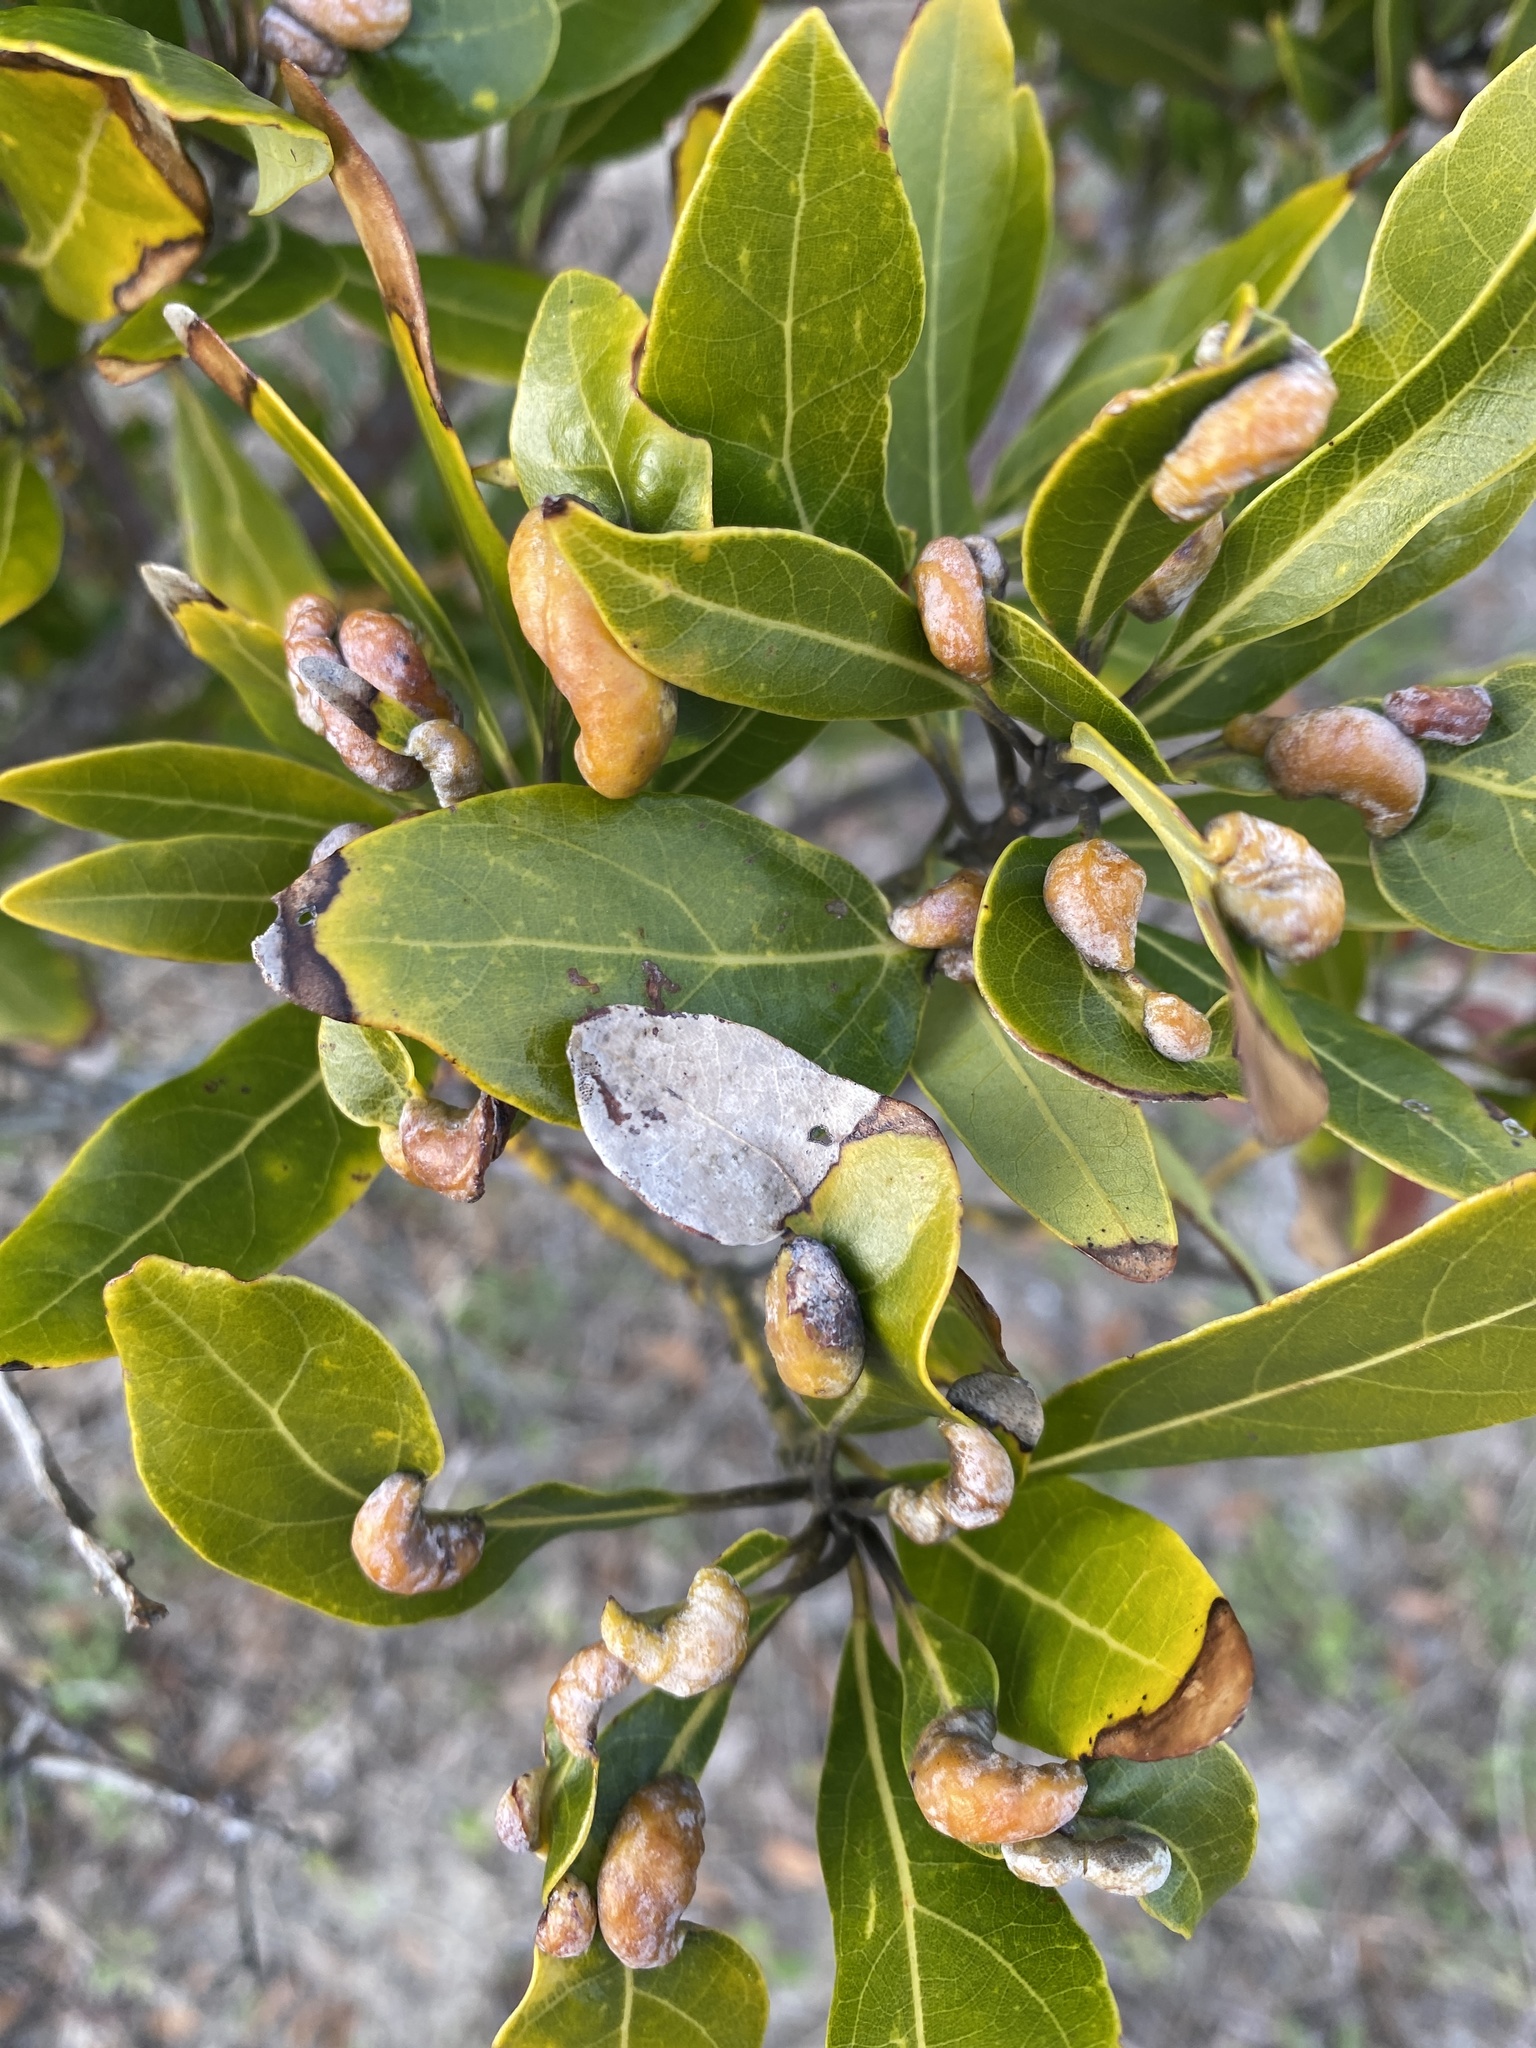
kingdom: Plantae
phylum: Tracheophyta
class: Magnoliopsida
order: Laurales
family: Lauraceae
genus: Persea
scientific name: Persea borbonia
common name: Redbay
